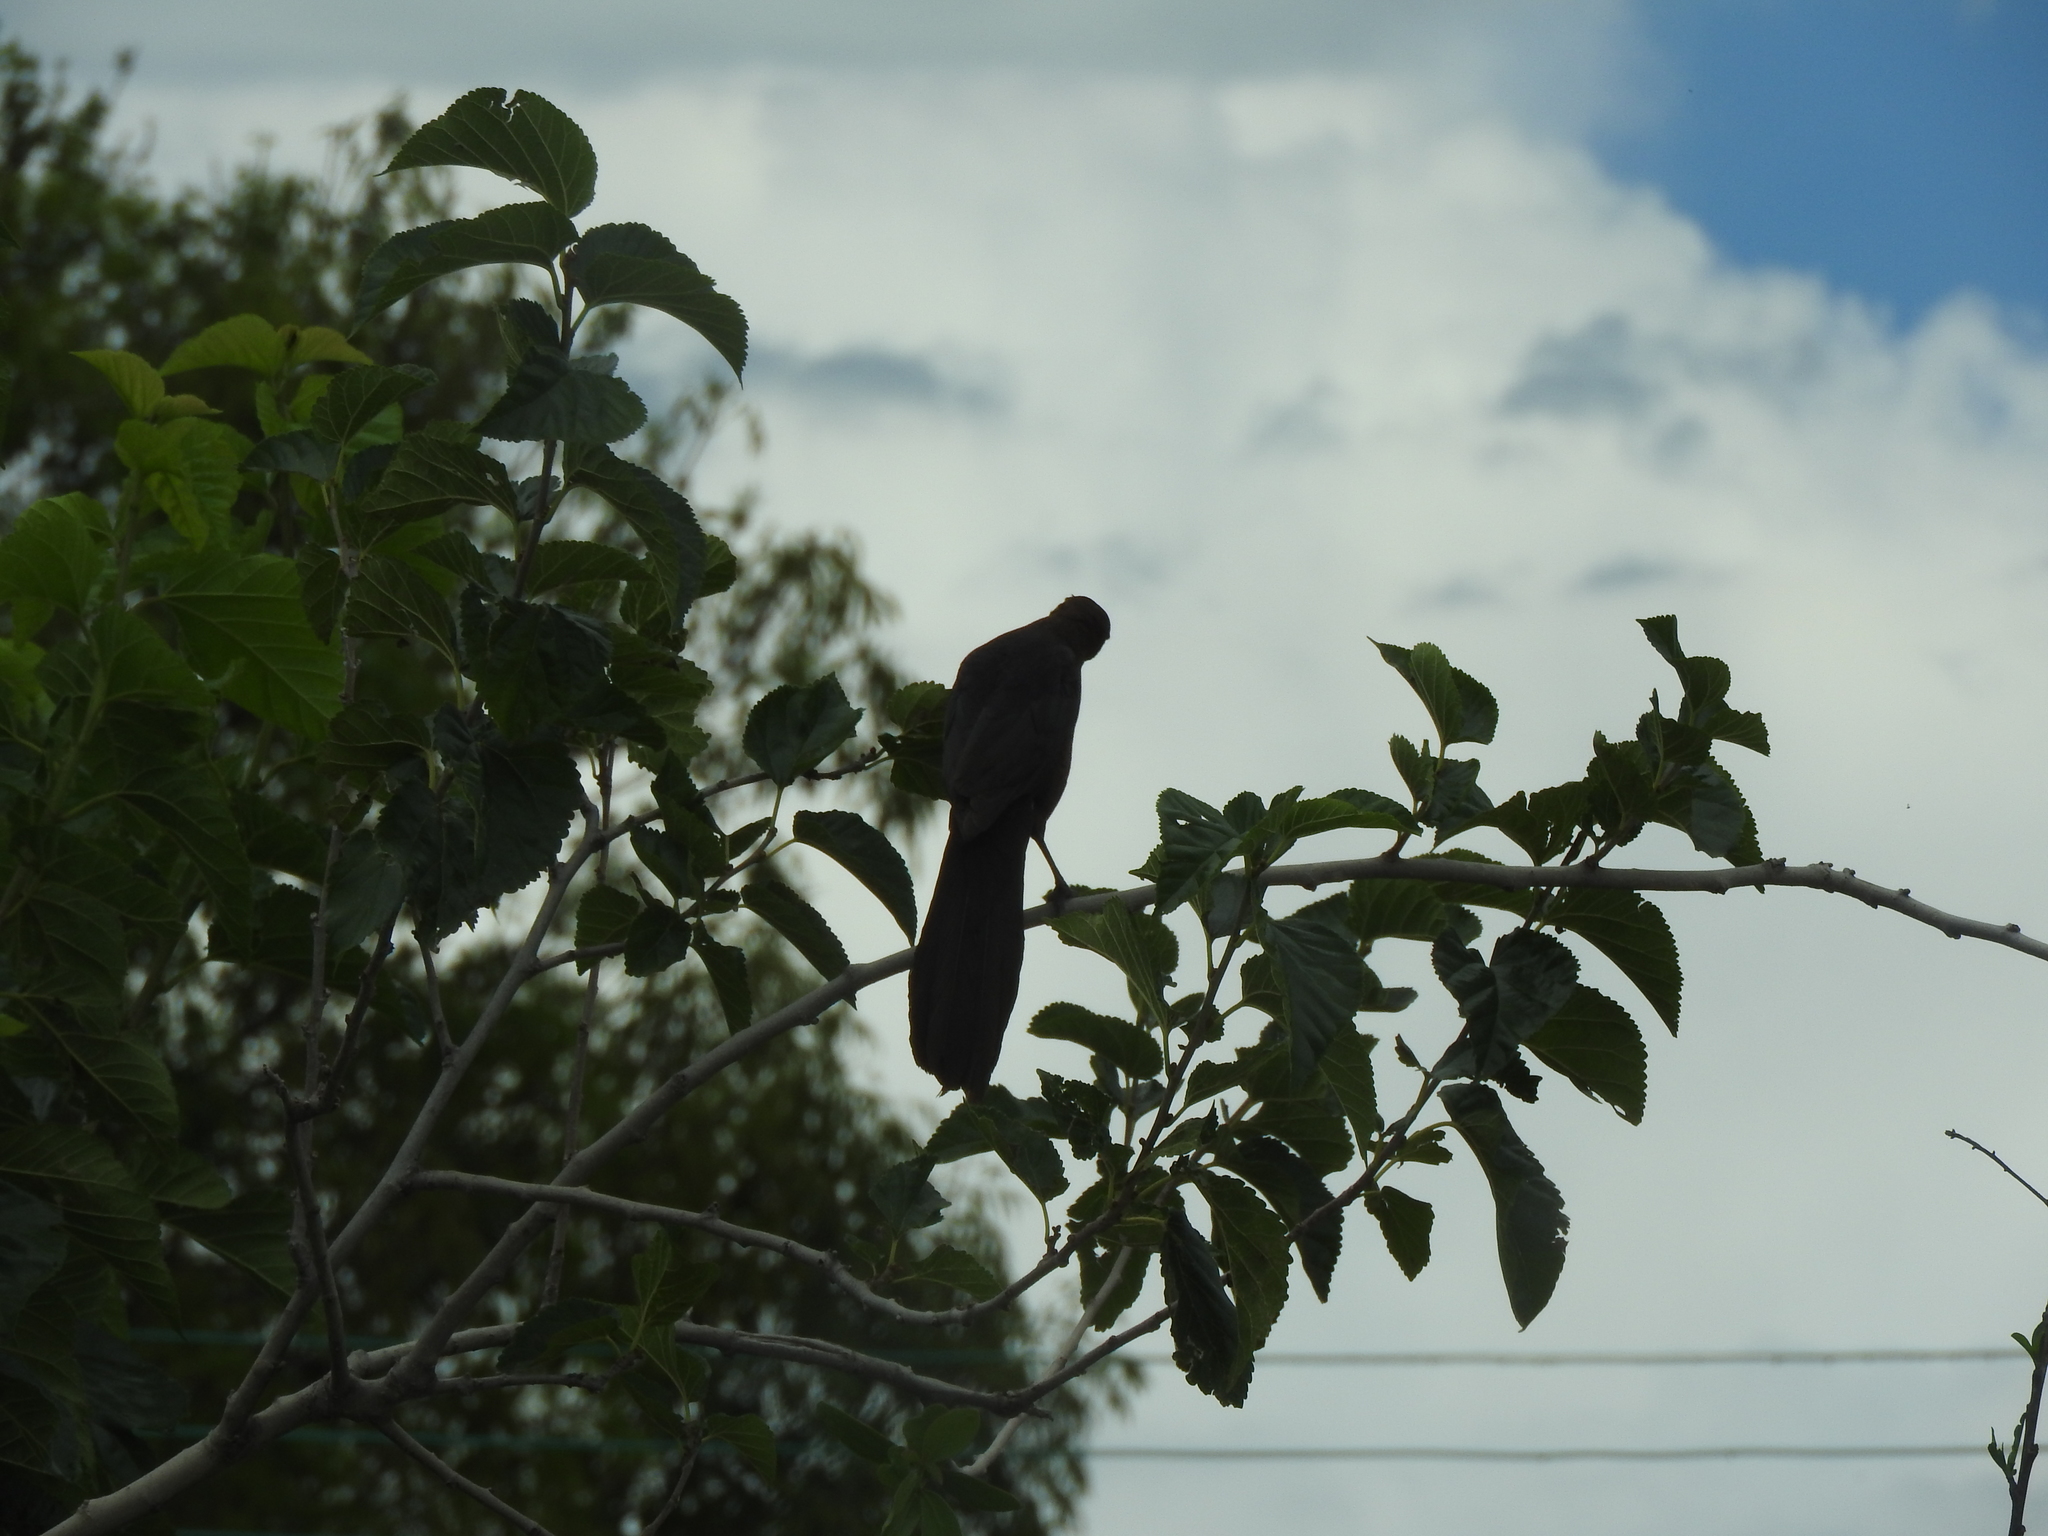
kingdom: Animalia
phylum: Chordata
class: Aves
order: Passeriformes
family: Icteridae
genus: Quiscalus
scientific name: Quiscalus mexicanus
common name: Great-tailed grackle
